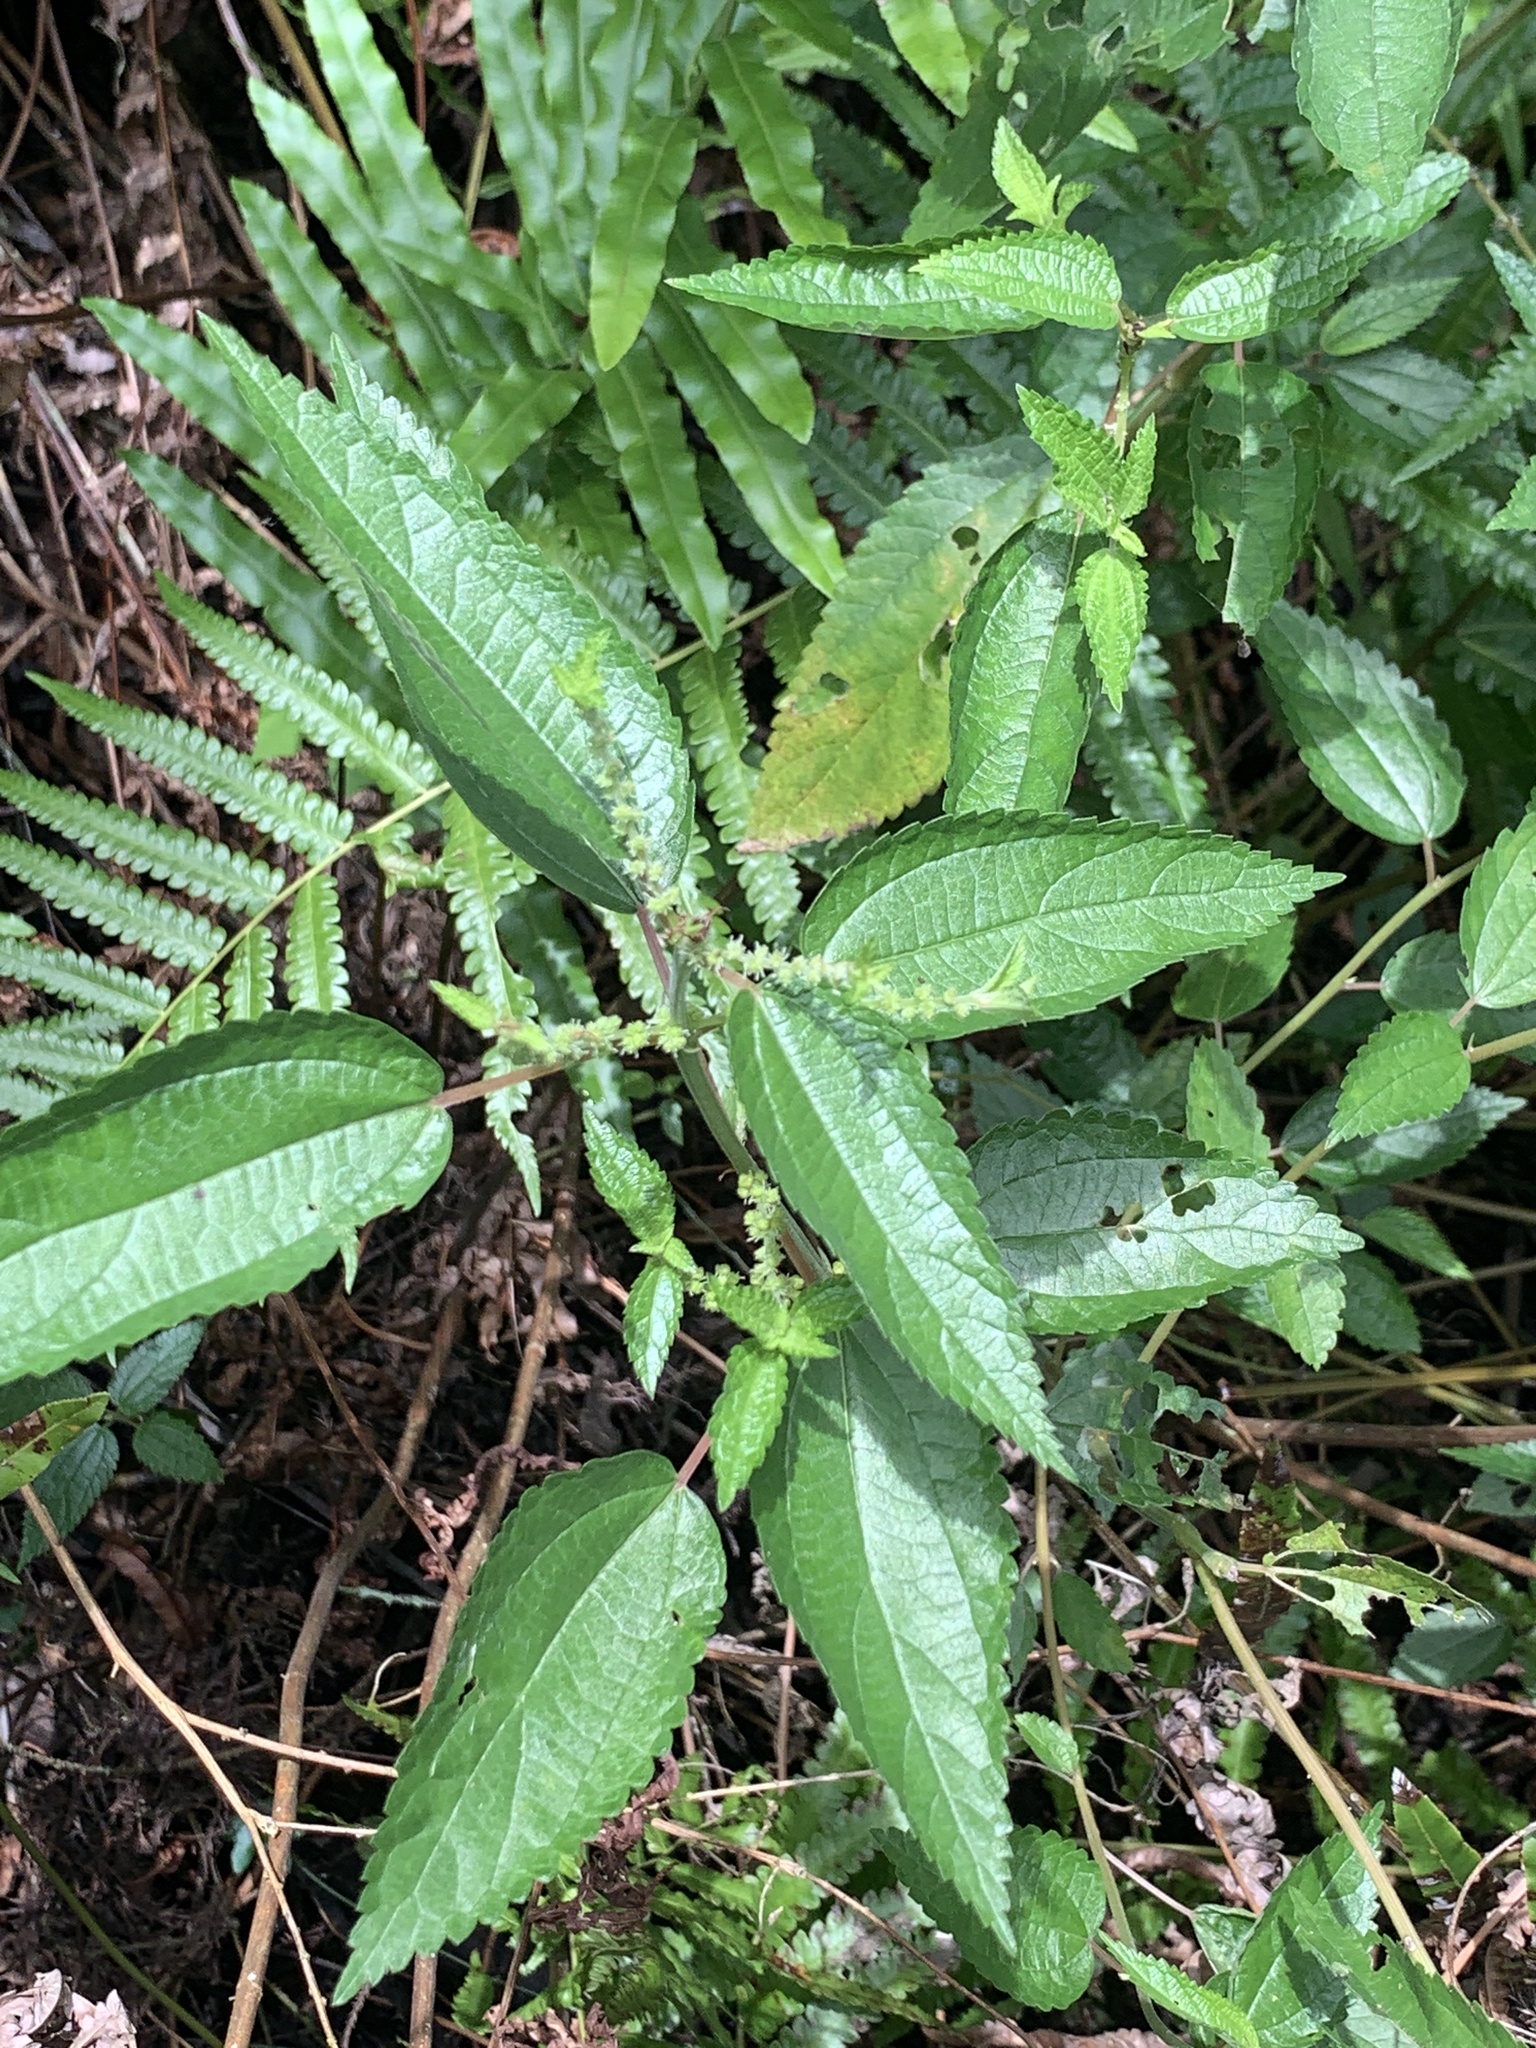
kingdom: Plantae
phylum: Tracheophyta
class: Magnoliopsida
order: Rosales
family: Urticaceae
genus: Boehmeria
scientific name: Boehmeria cylindrica
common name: Bog-hemp
